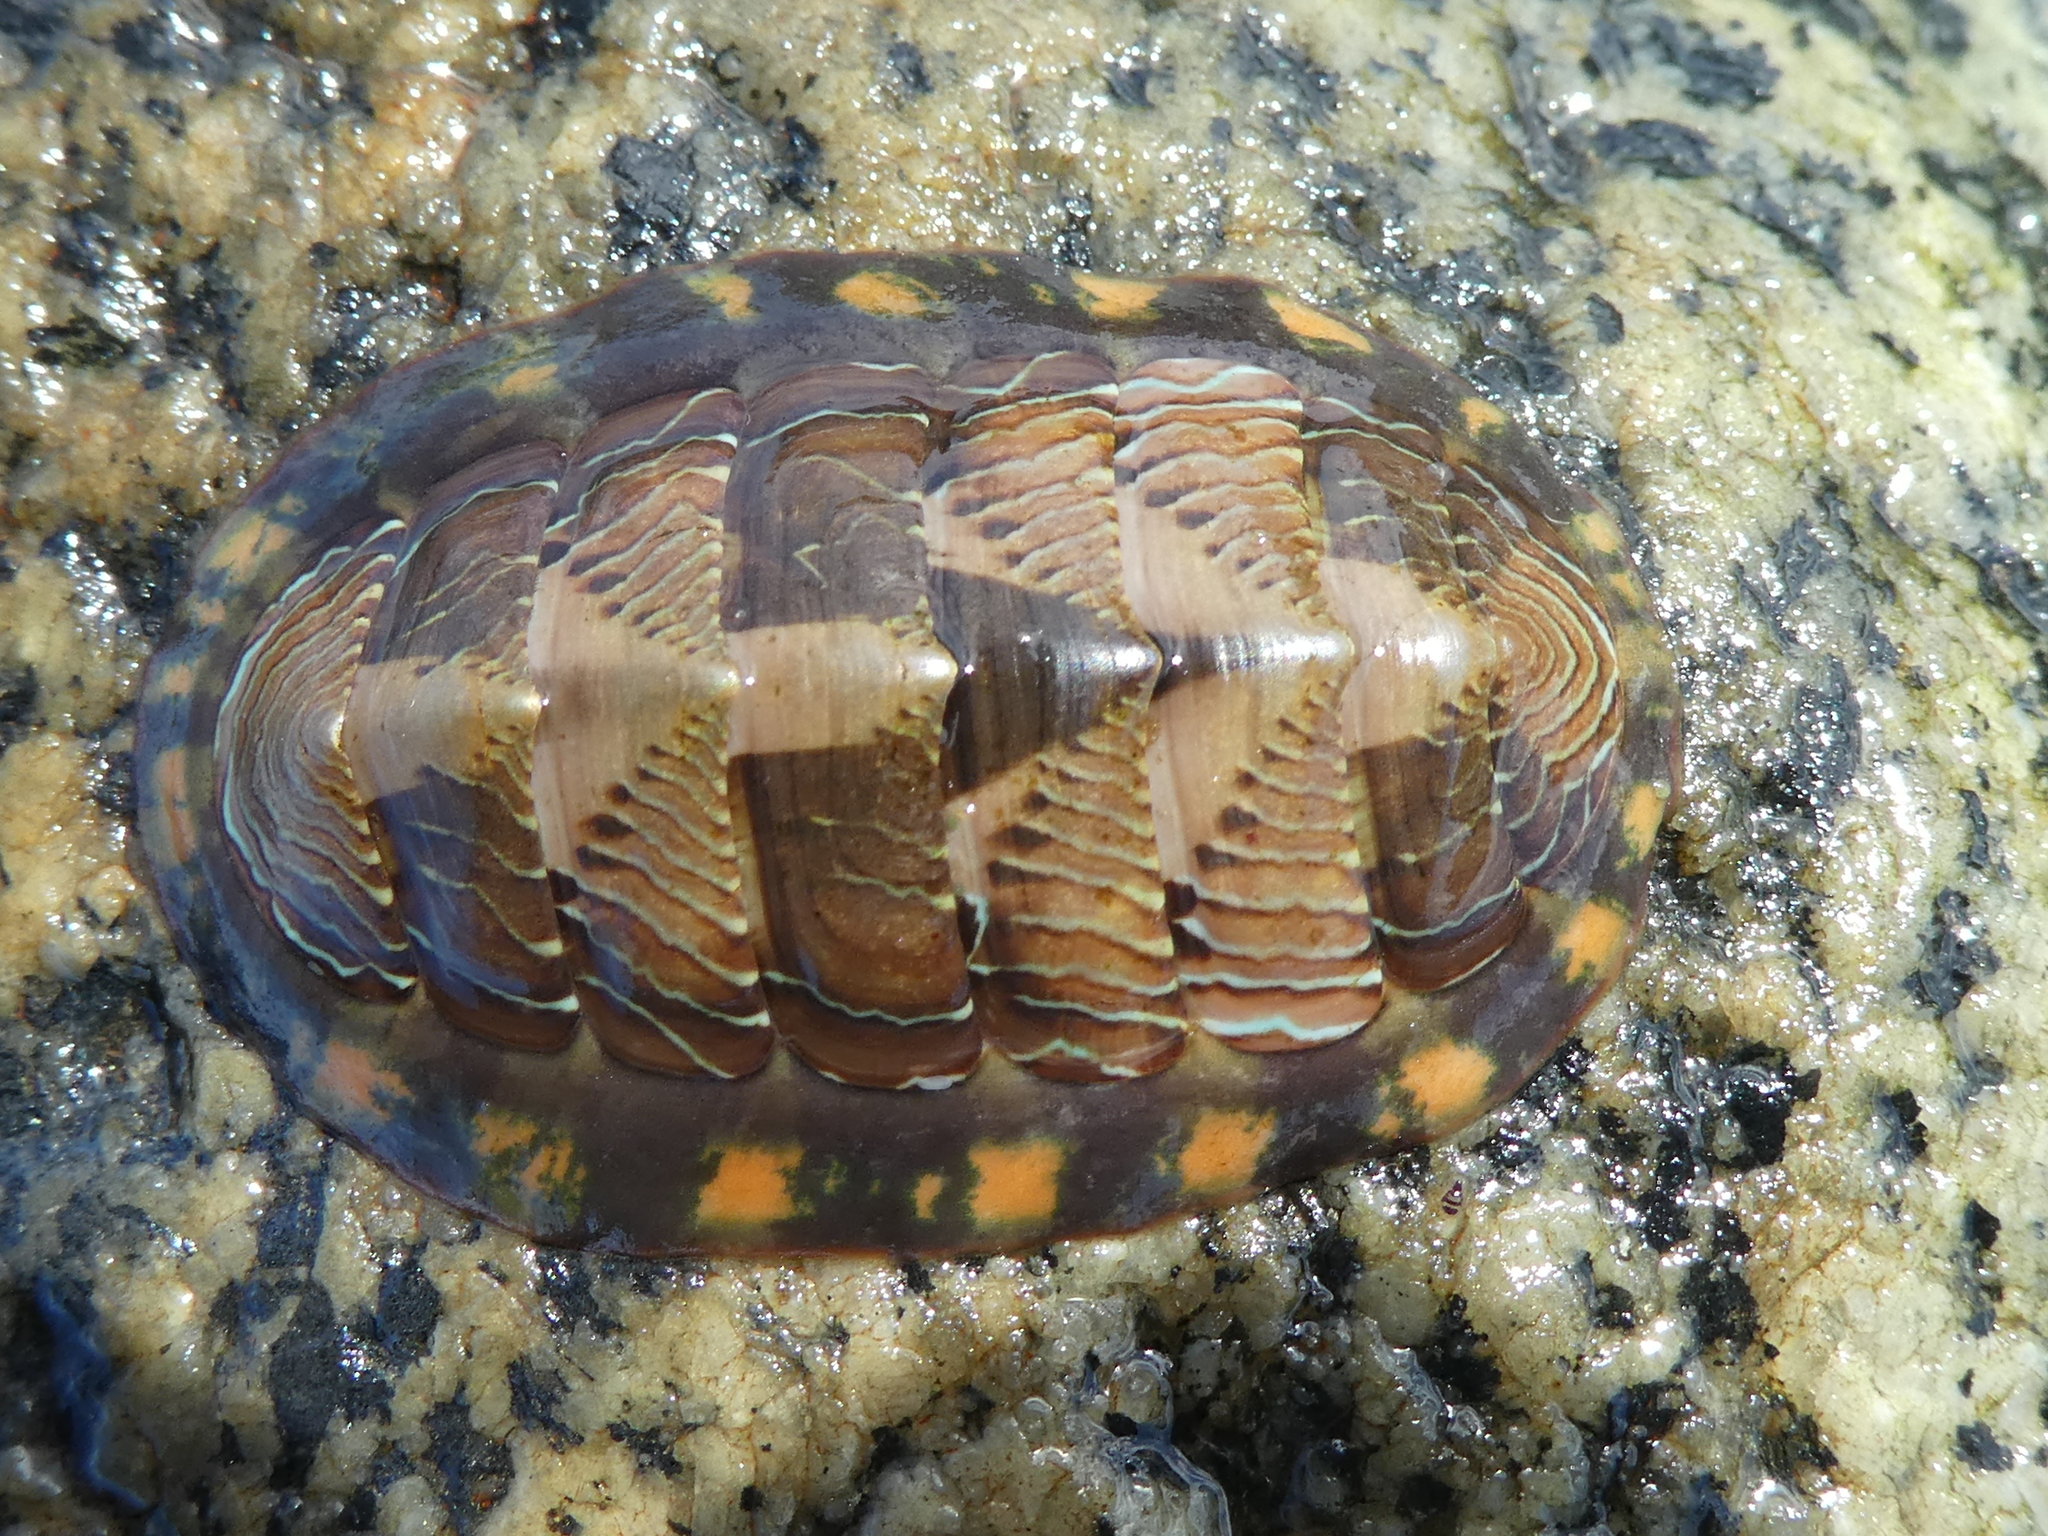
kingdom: Animalia
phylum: Mollusca
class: Polyplacophora
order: Chitonida
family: Tonicellidae
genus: Tonicella
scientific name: Tonicella lineata
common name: Lined chiton
